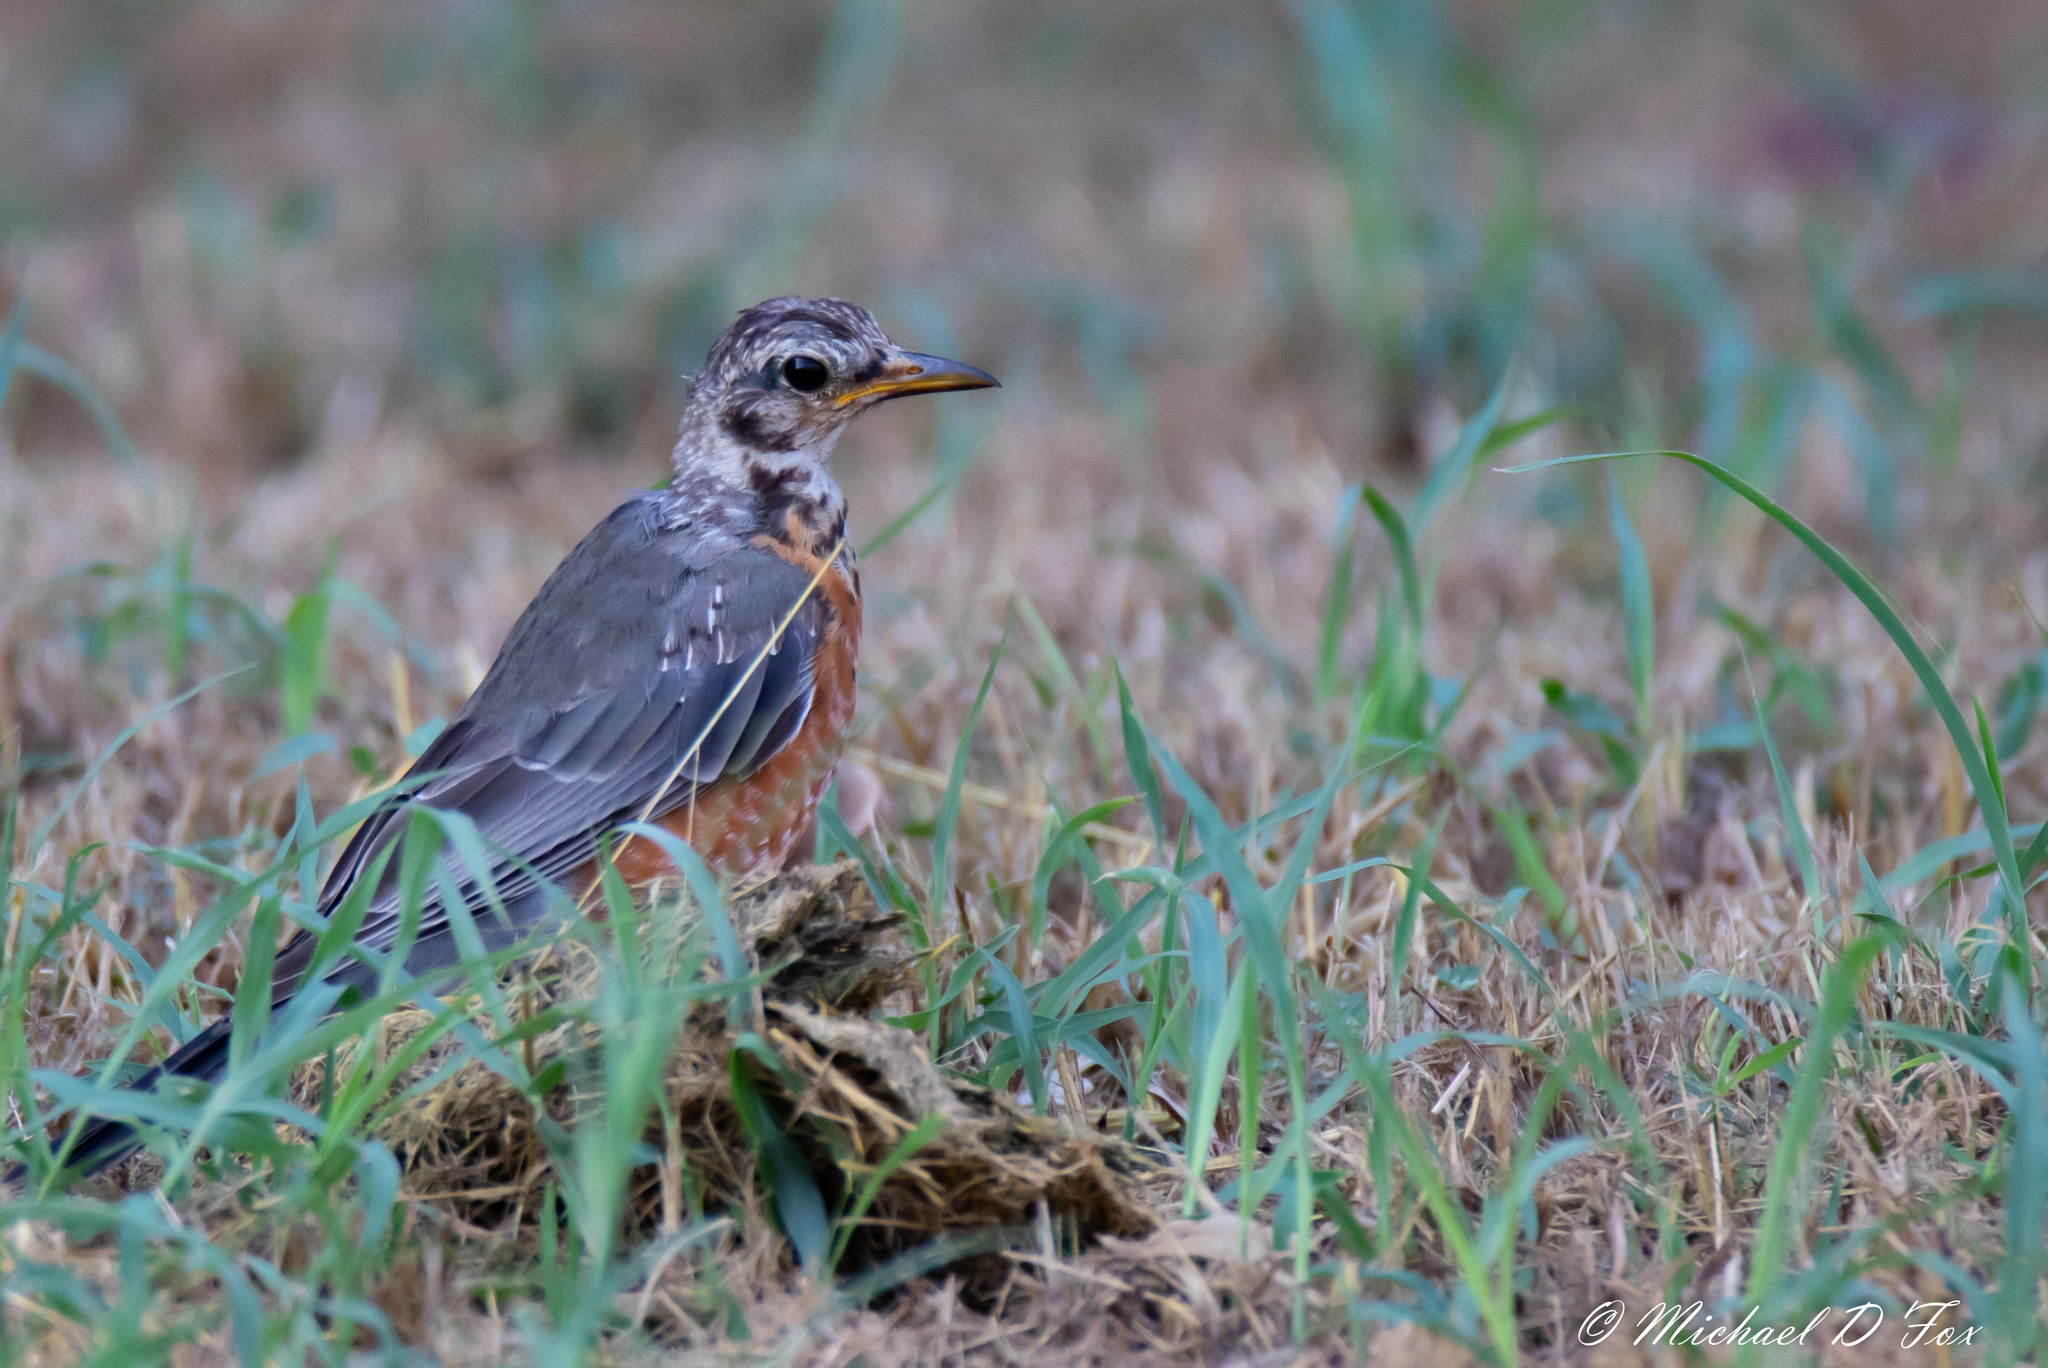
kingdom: Animalia
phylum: Chordata
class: Aves
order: Passeriformes
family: Turdidae
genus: Turdus
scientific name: Turdus migratorius
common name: American robin
